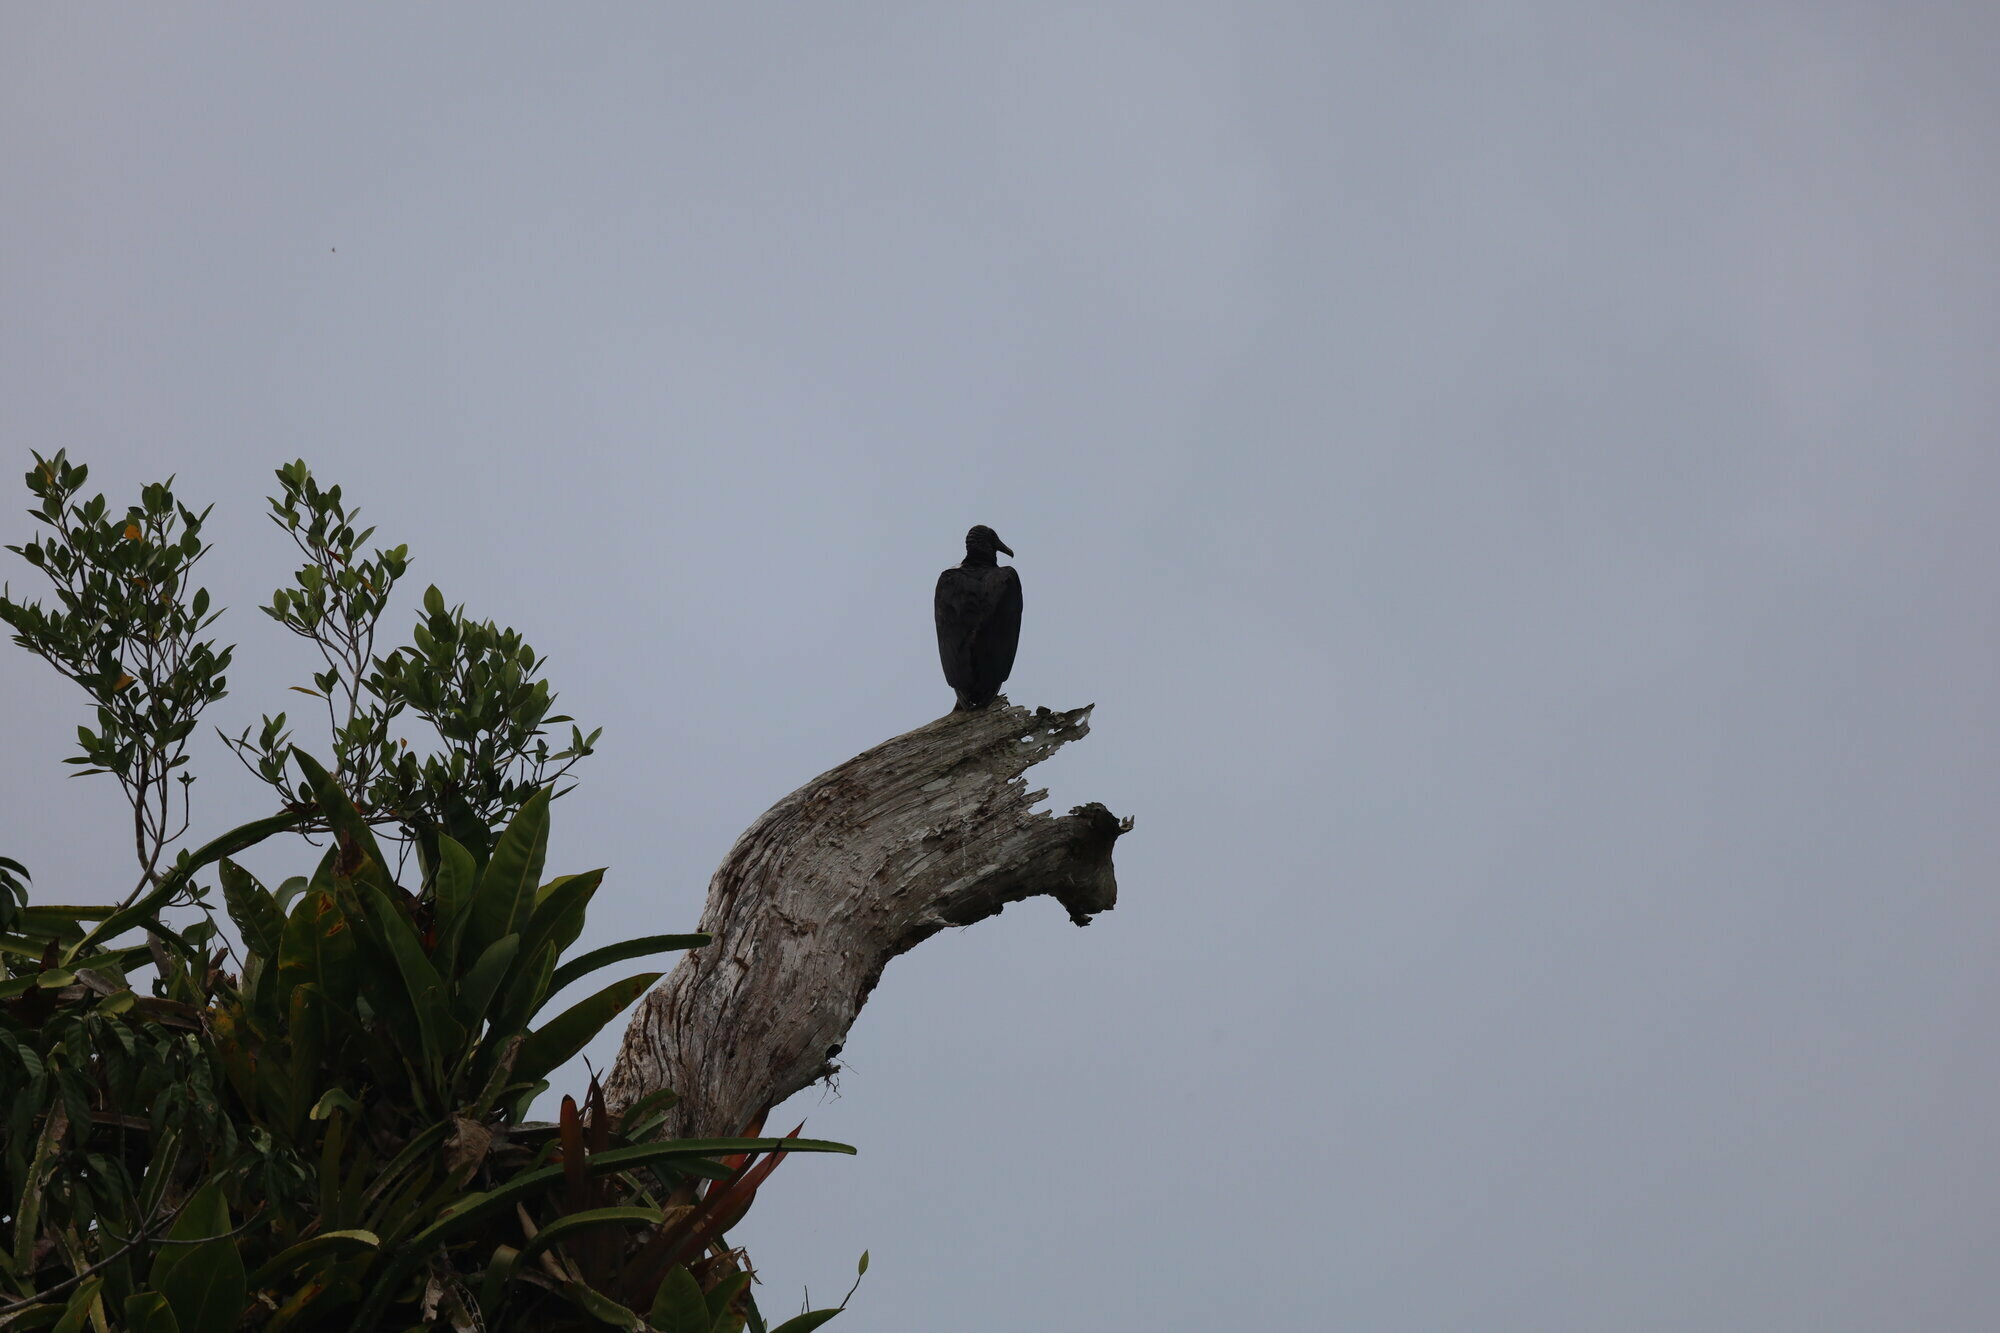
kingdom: Animalia
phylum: Chordata
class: Aves
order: Accipitriformes
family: Cathartidae
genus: Coragyps
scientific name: Coragyps atratus
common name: Black vulture
